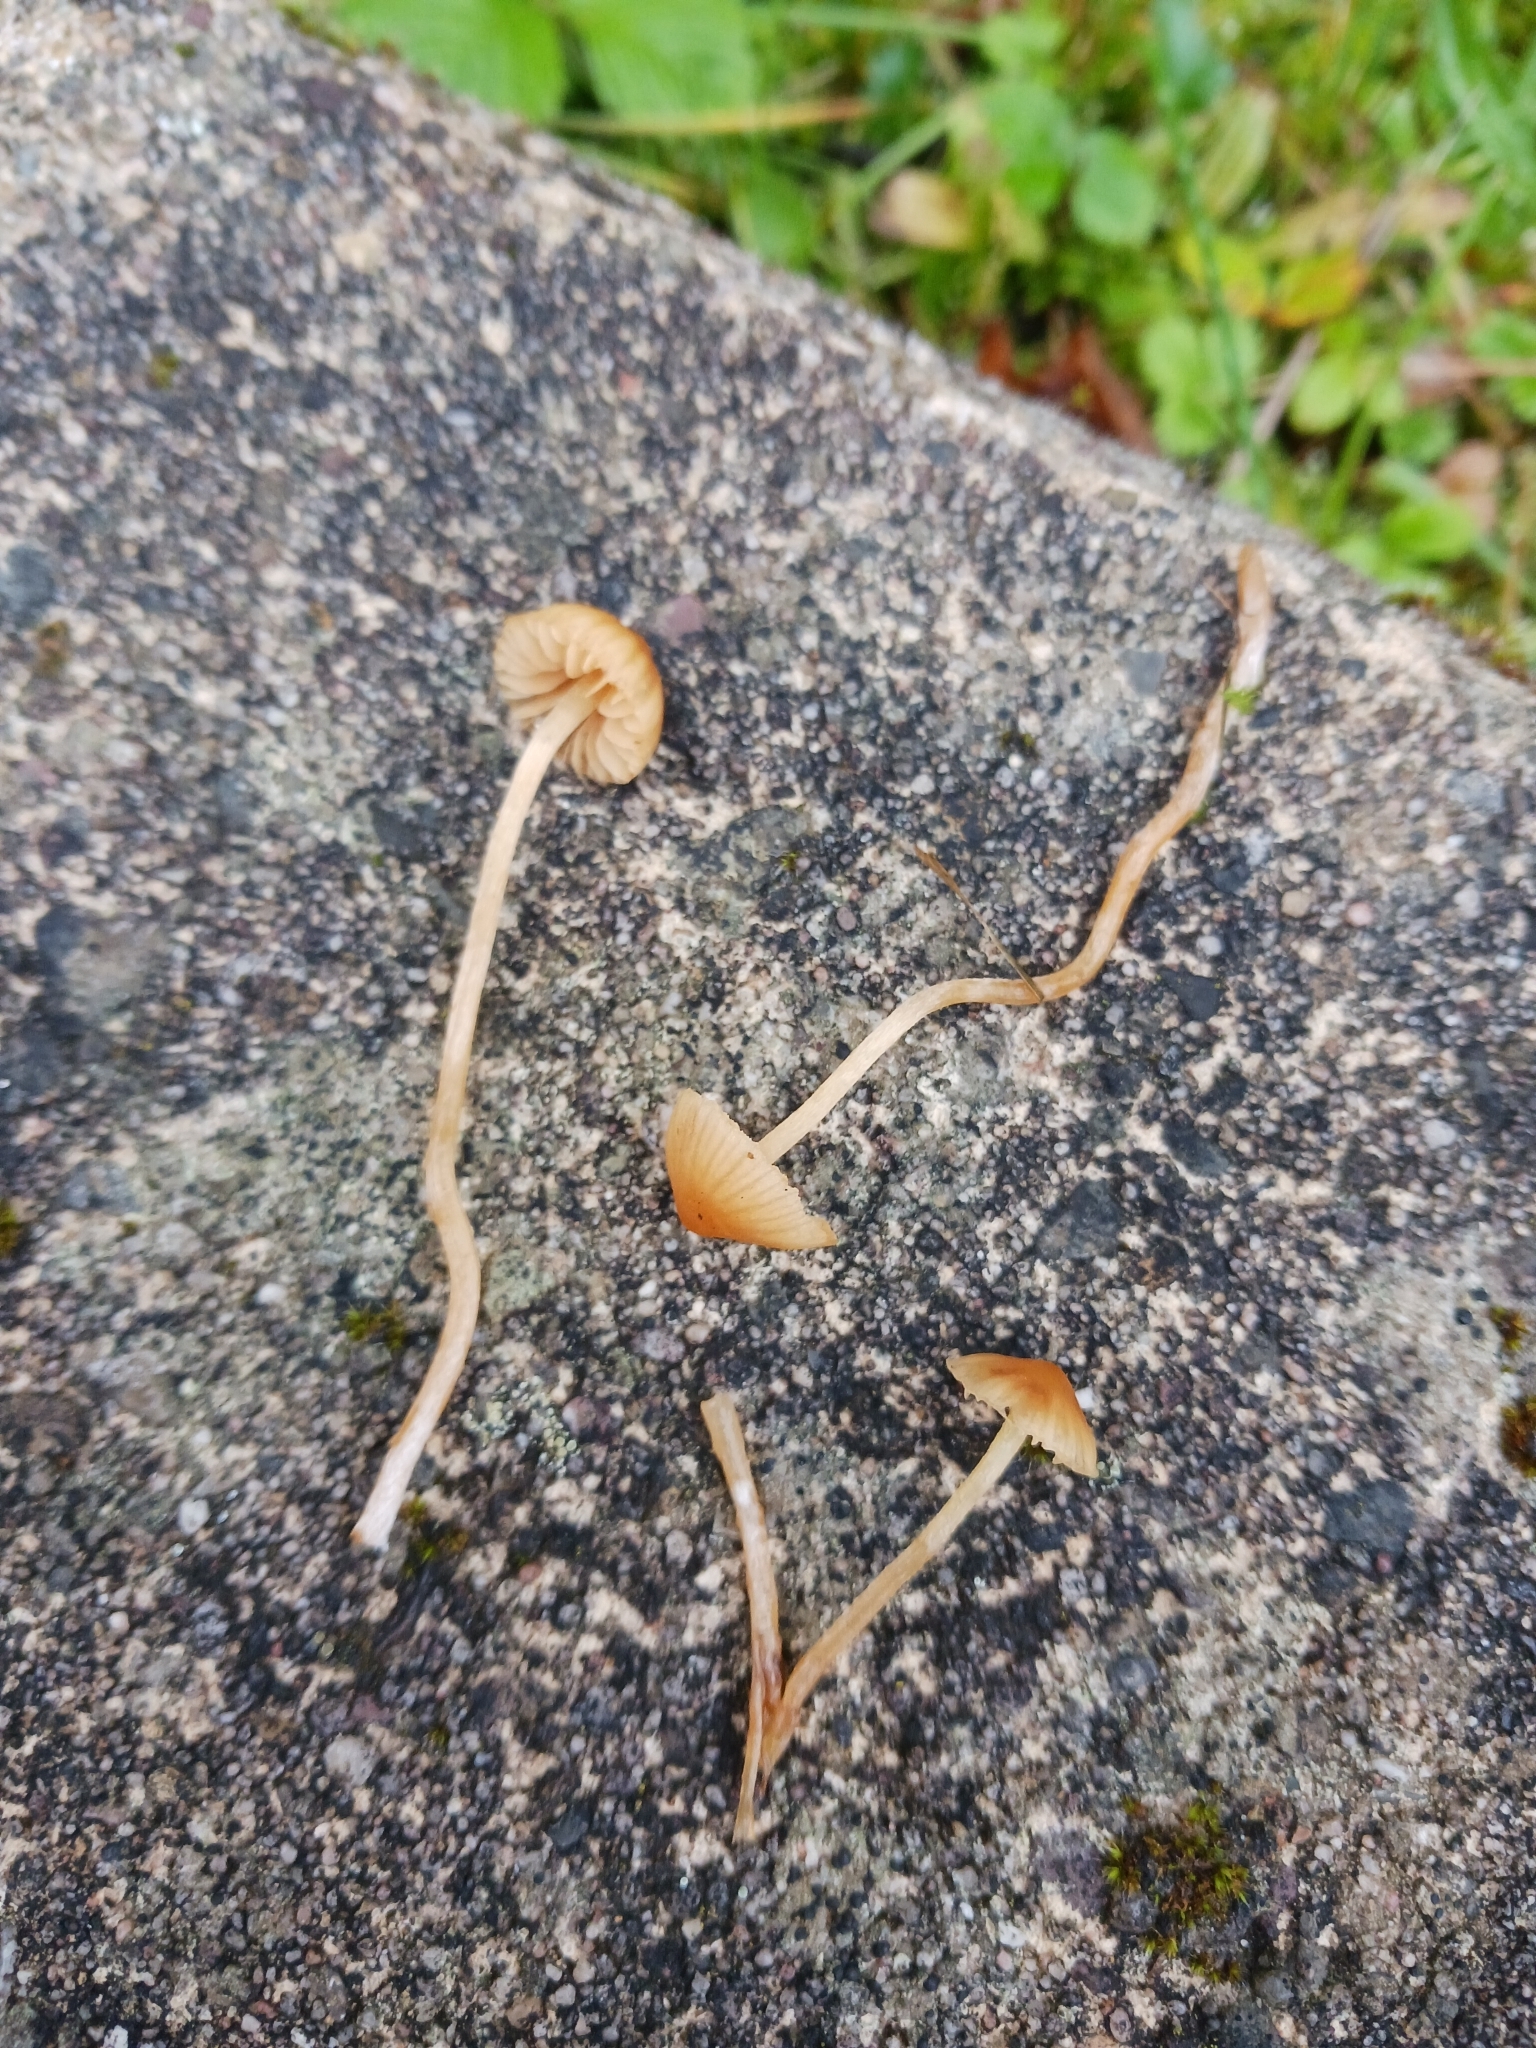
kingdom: Fungi
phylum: Basidiomycota
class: Agaricomycetes
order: Agaricales
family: Hymenogastraceae
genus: Galerina
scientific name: Galerina clavata
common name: Ribbed bell
